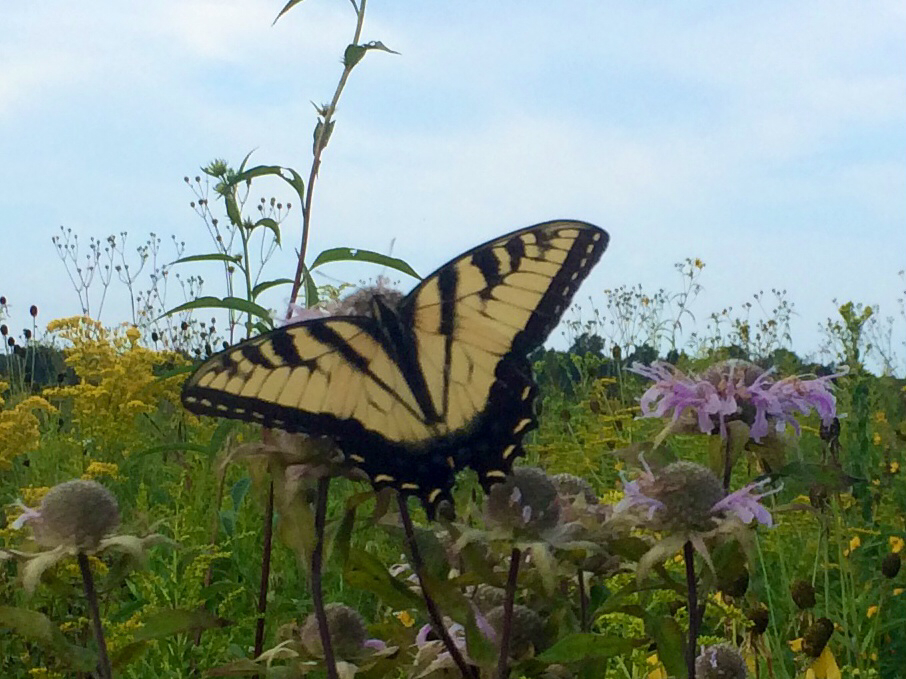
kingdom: Animalia
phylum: Arthropoda
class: Insecta
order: Lepidoptera
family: Papilionidae
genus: Papilio
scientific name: Papilio glaucus
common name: Tiger swallowtail
